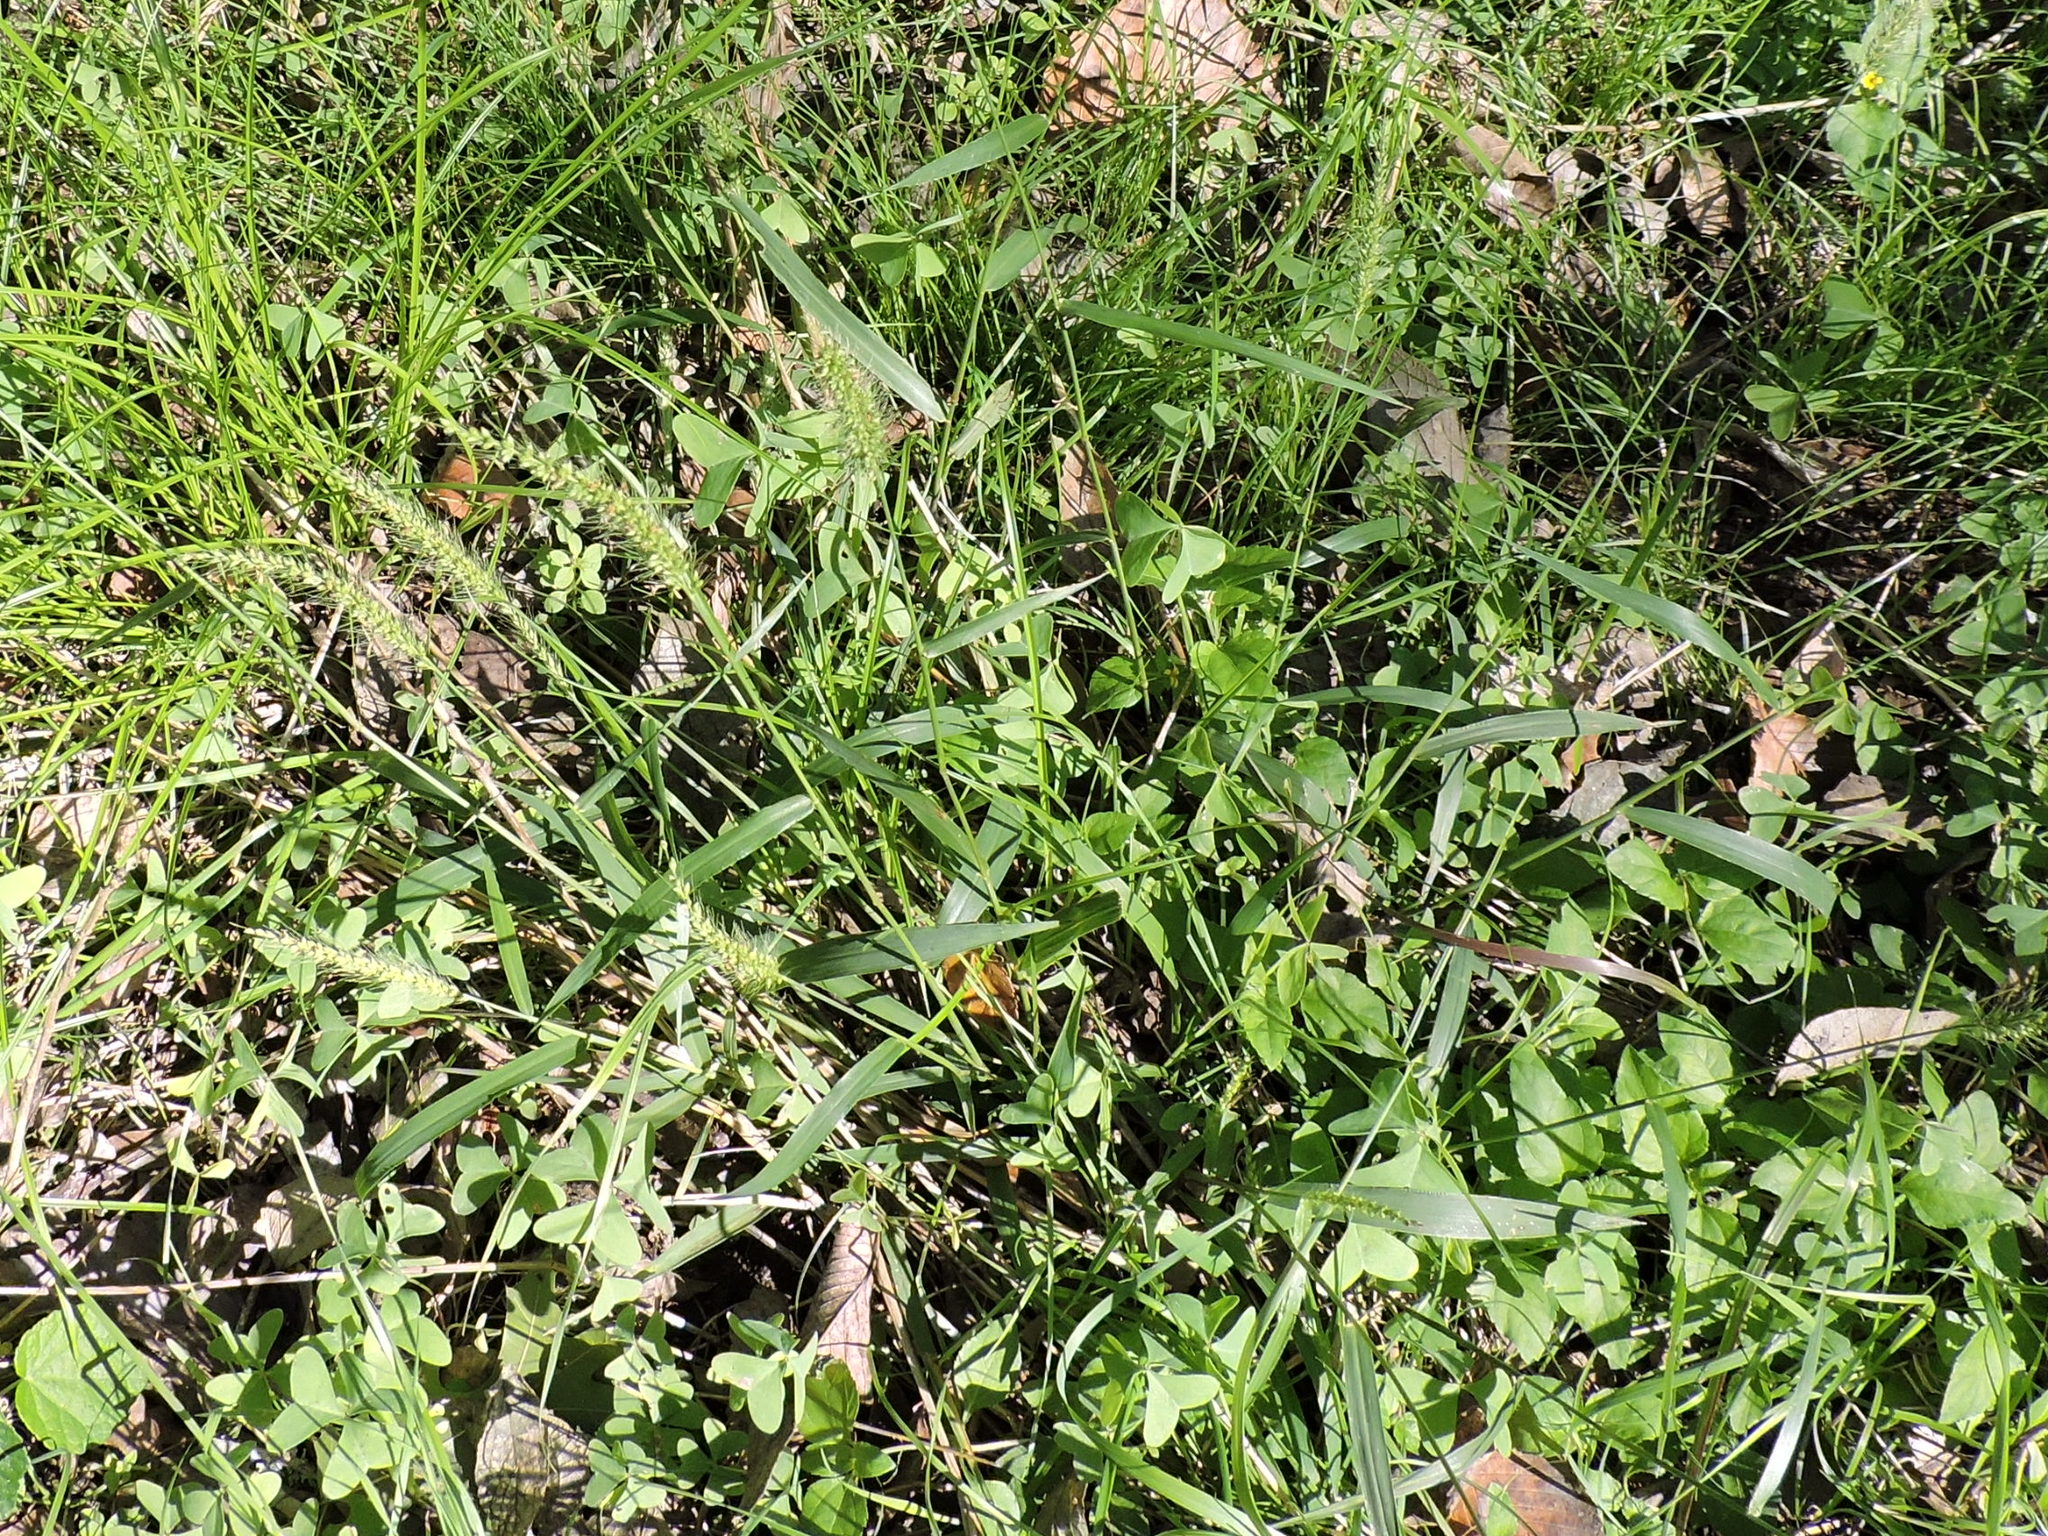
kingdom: Plantae
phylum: Tracheophyta
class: Liliopsida
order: Poales
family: Poaceae
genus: Setaria
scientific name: Setaria scheelei
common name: Southwestern bristle grass
